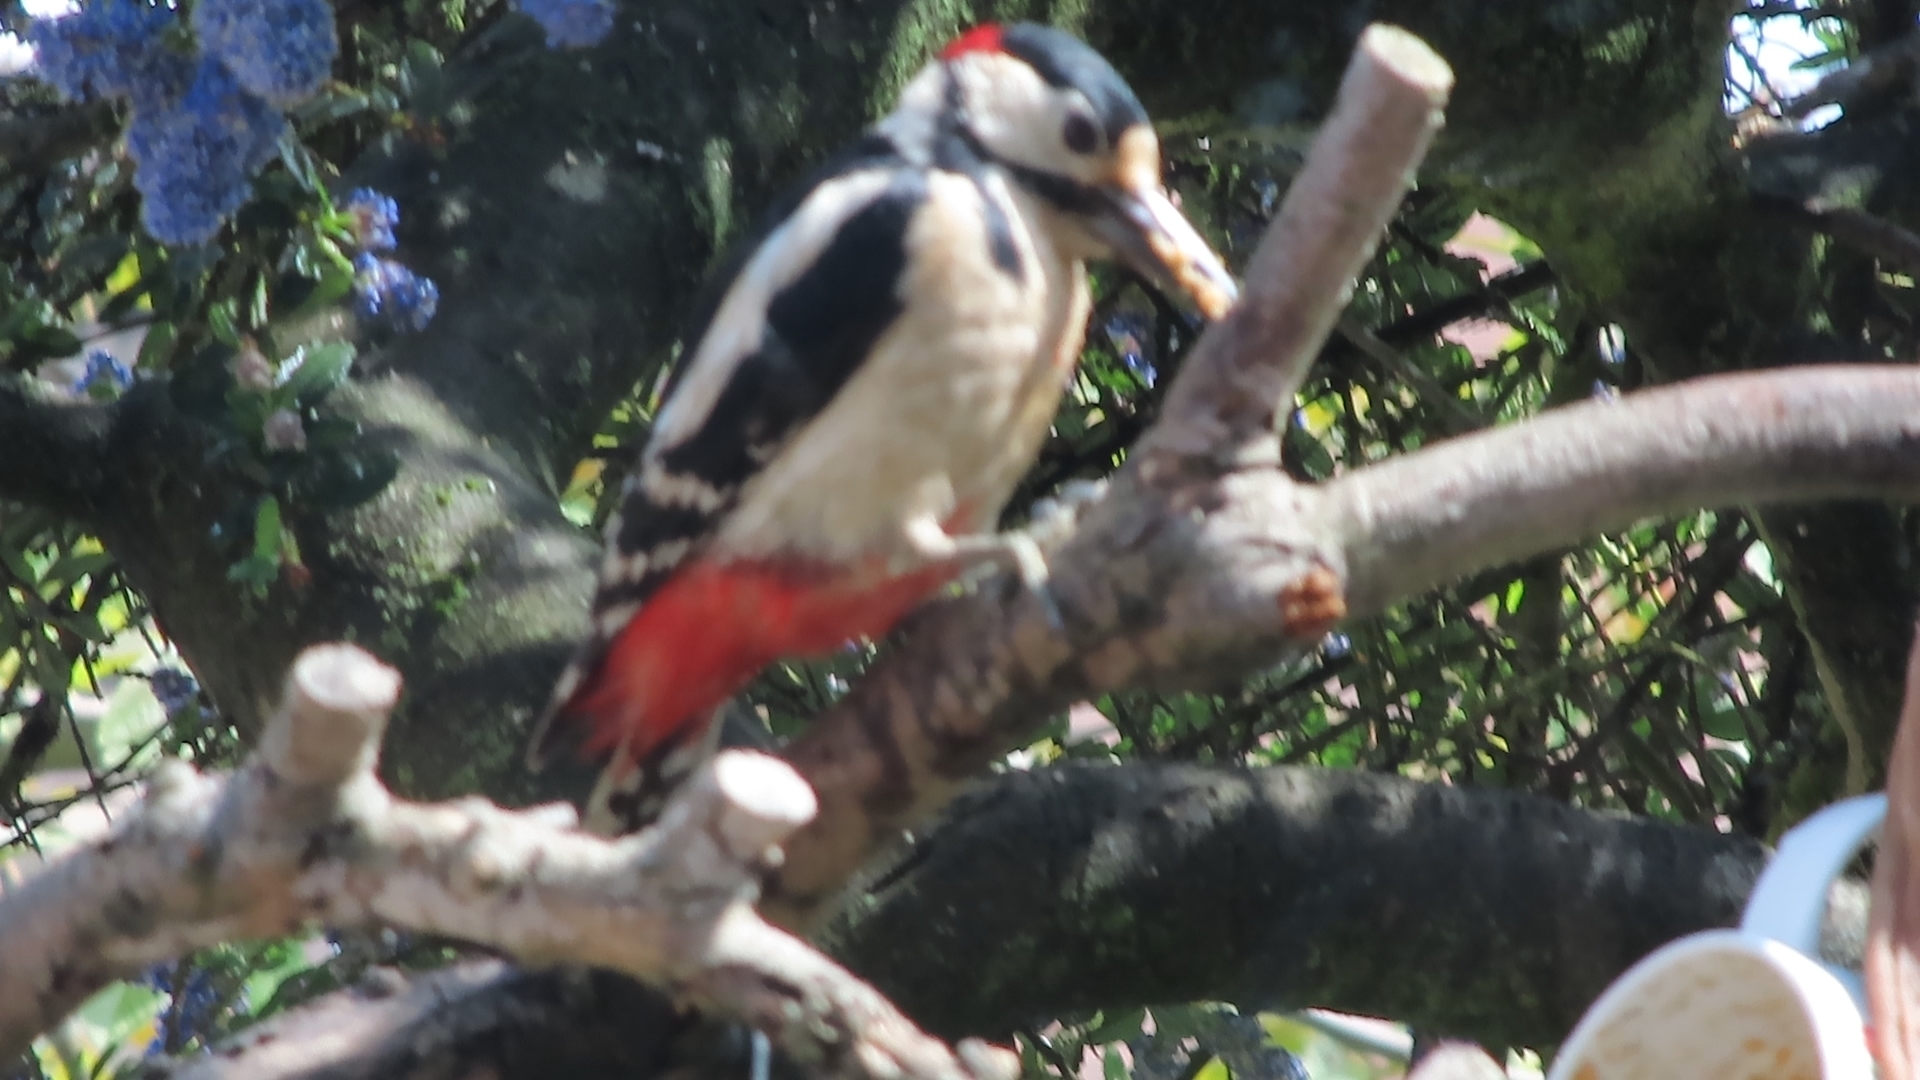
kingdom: Animalia
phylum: Chordata
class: Aves
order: Piciformes
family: Picidae
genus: Dendrocopos
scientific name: Dendrocopos major
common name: Great spotted woodpecker
